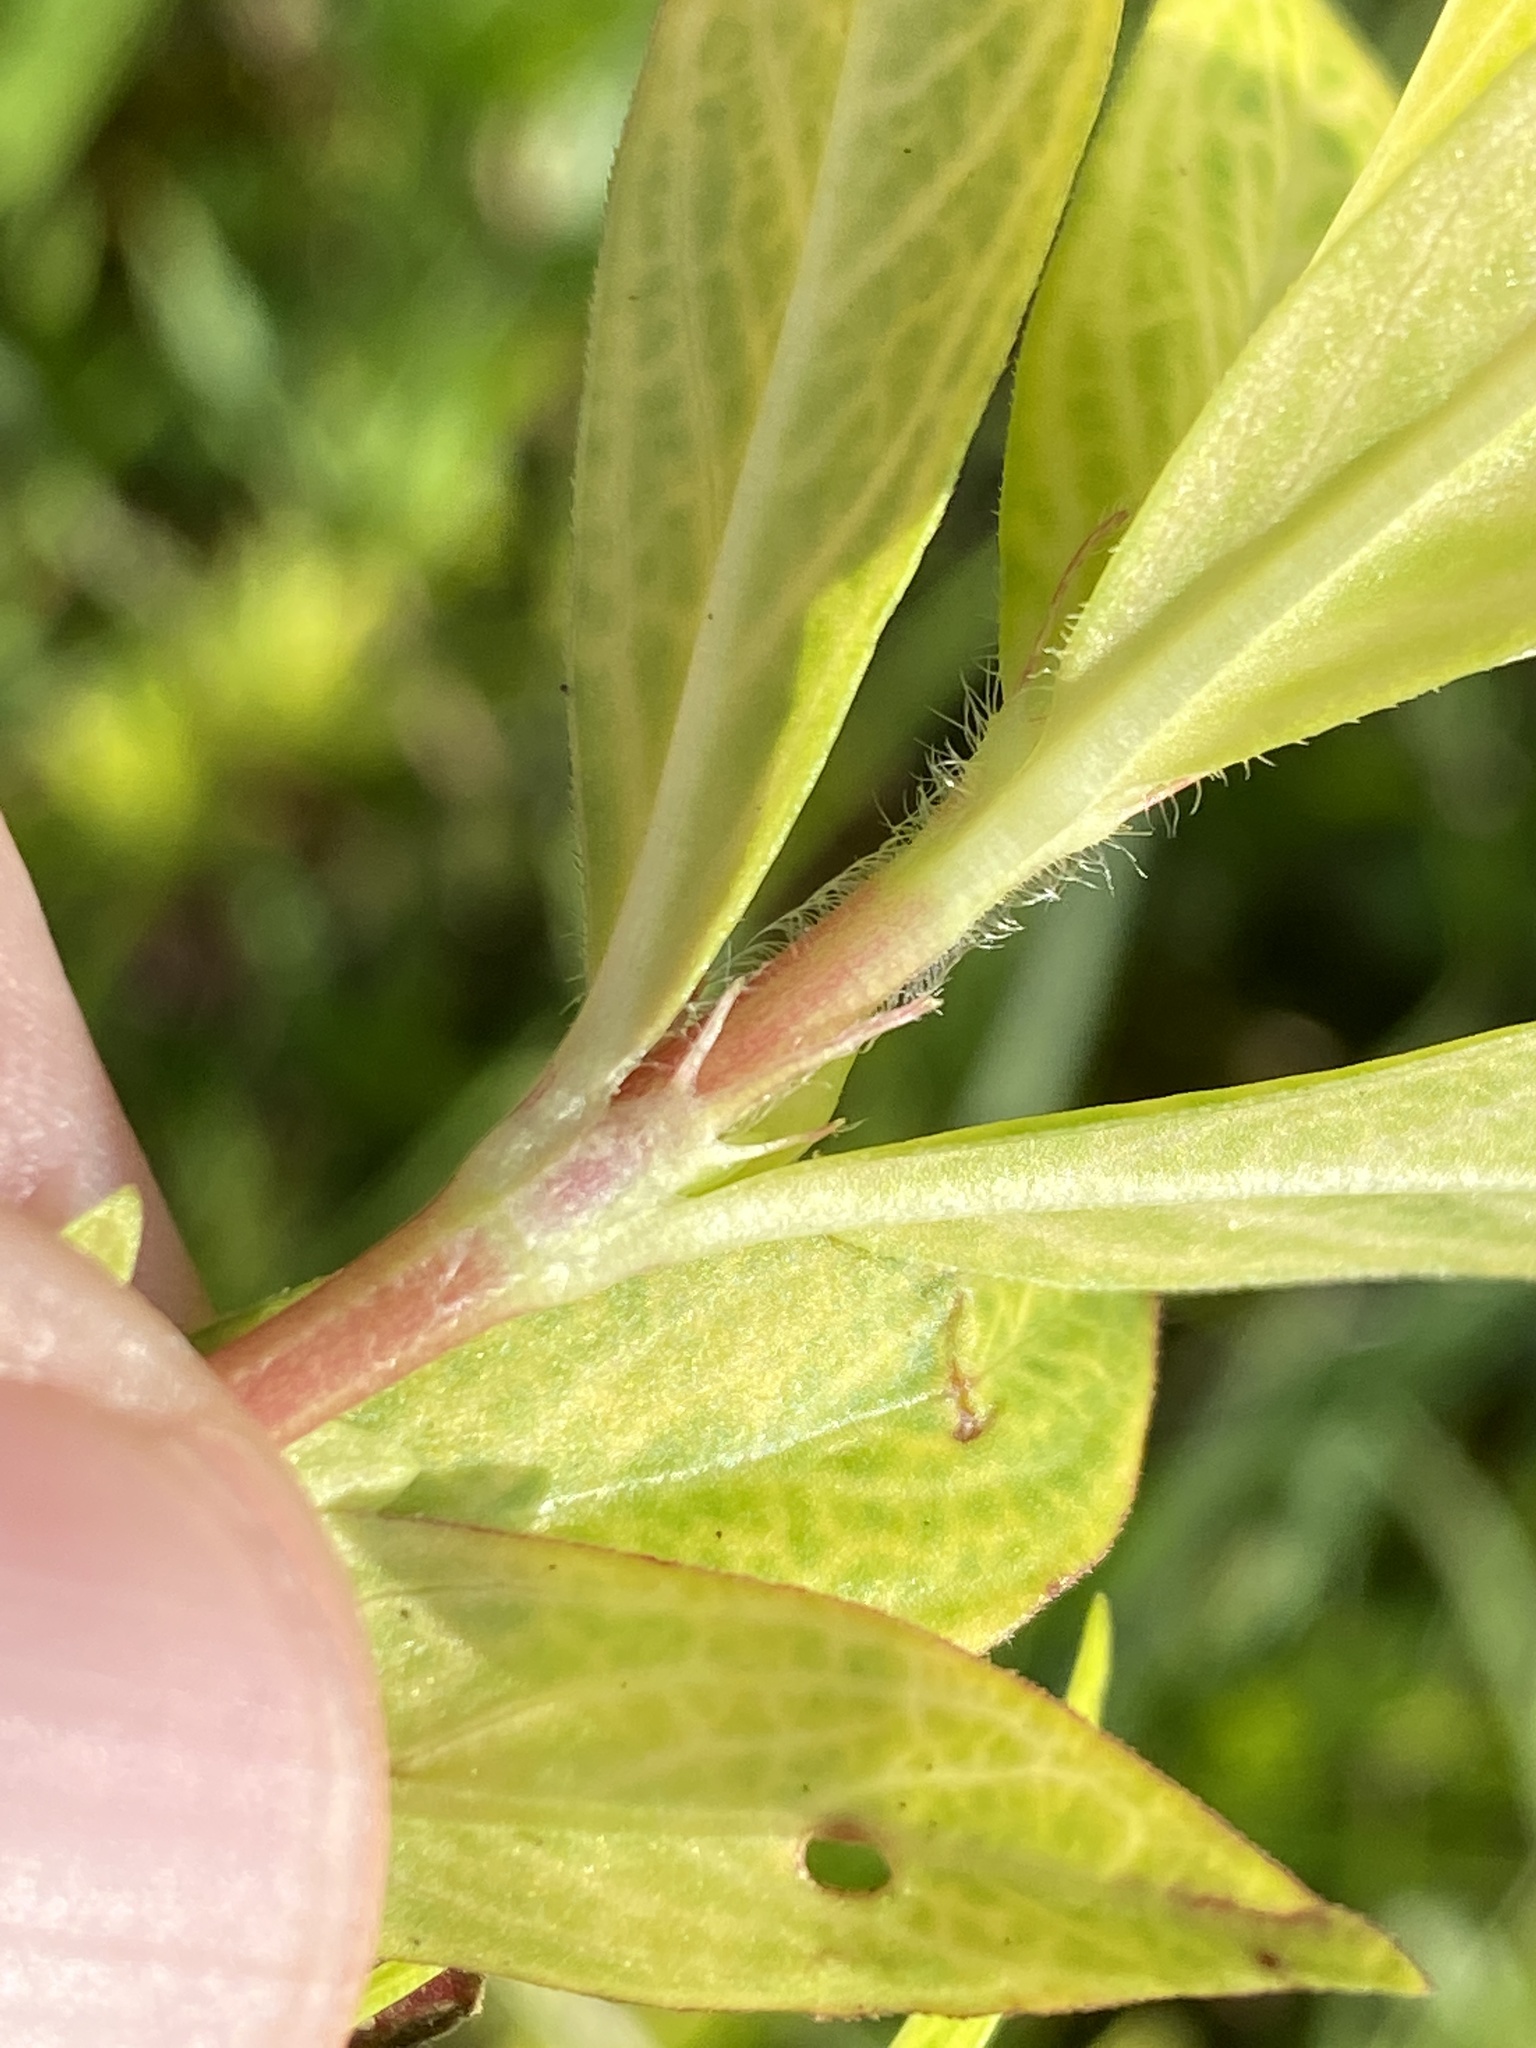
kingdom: Plantae
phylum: Tracheophyta
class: Magnoliopsida
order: Gentianales
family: Rubiaceae
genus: Diodia
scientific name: Diodia virginiana
